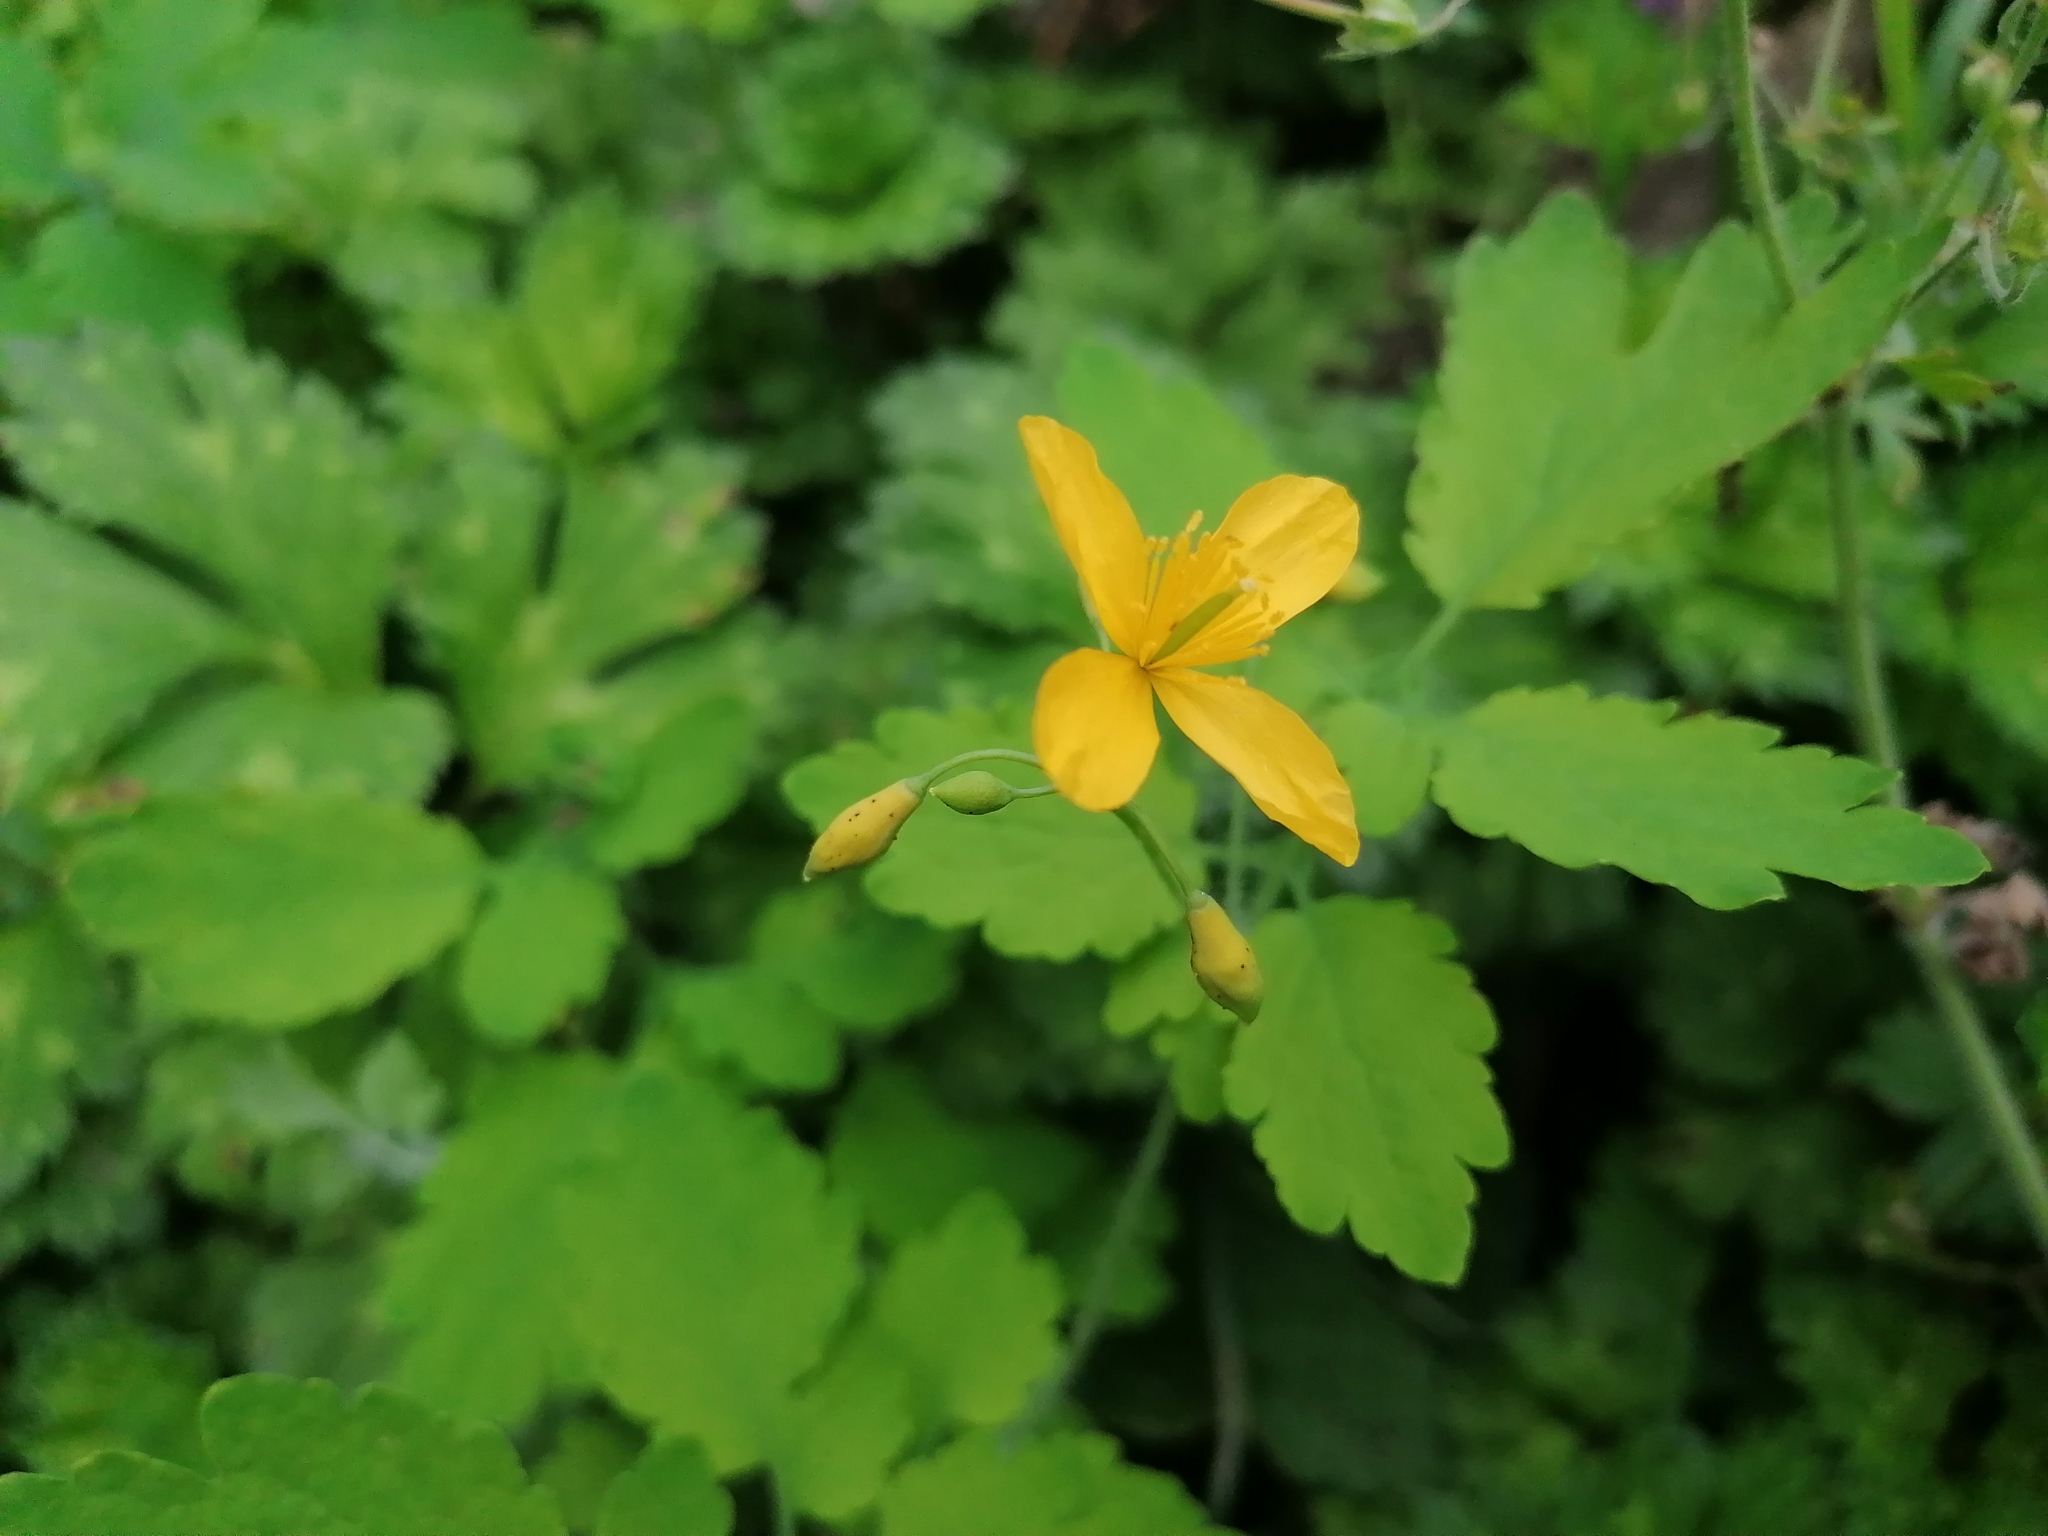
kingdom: Plantae
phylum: Tracheophyta
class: Magnoliopsida
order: Ranunculales
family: Papaveraceae
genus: Chelidonium
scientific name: Chelidonium majus
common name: Greater celandine
